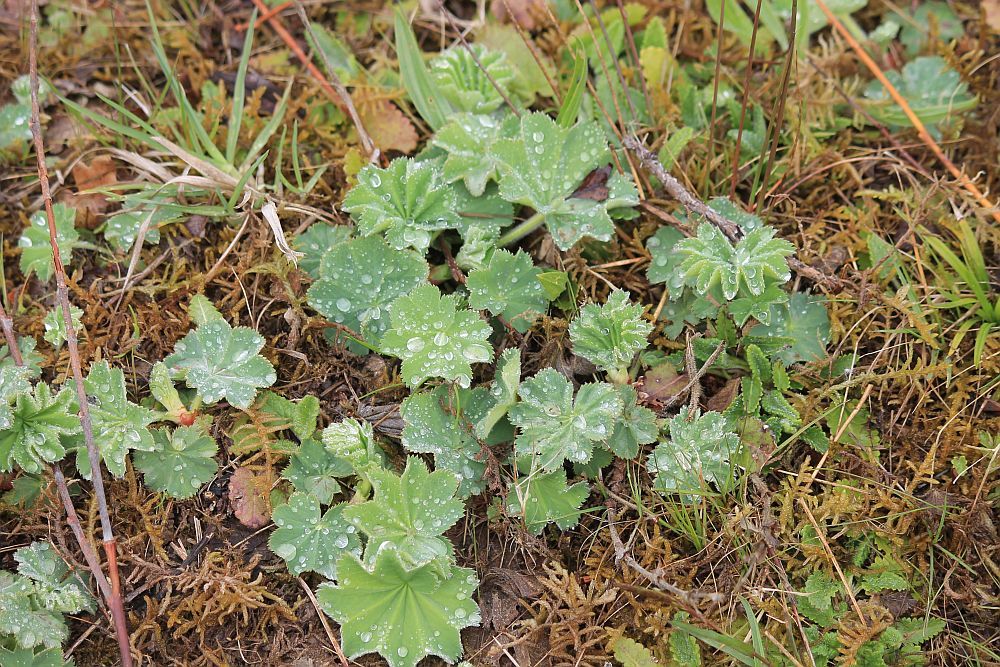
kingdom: Plantae
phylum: Tracheophyta
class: Magnoliopsida
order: Rosales
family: Rosaceae
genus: Alchemilla
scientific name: Alchemilla mollis
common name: Lady's-mantle
